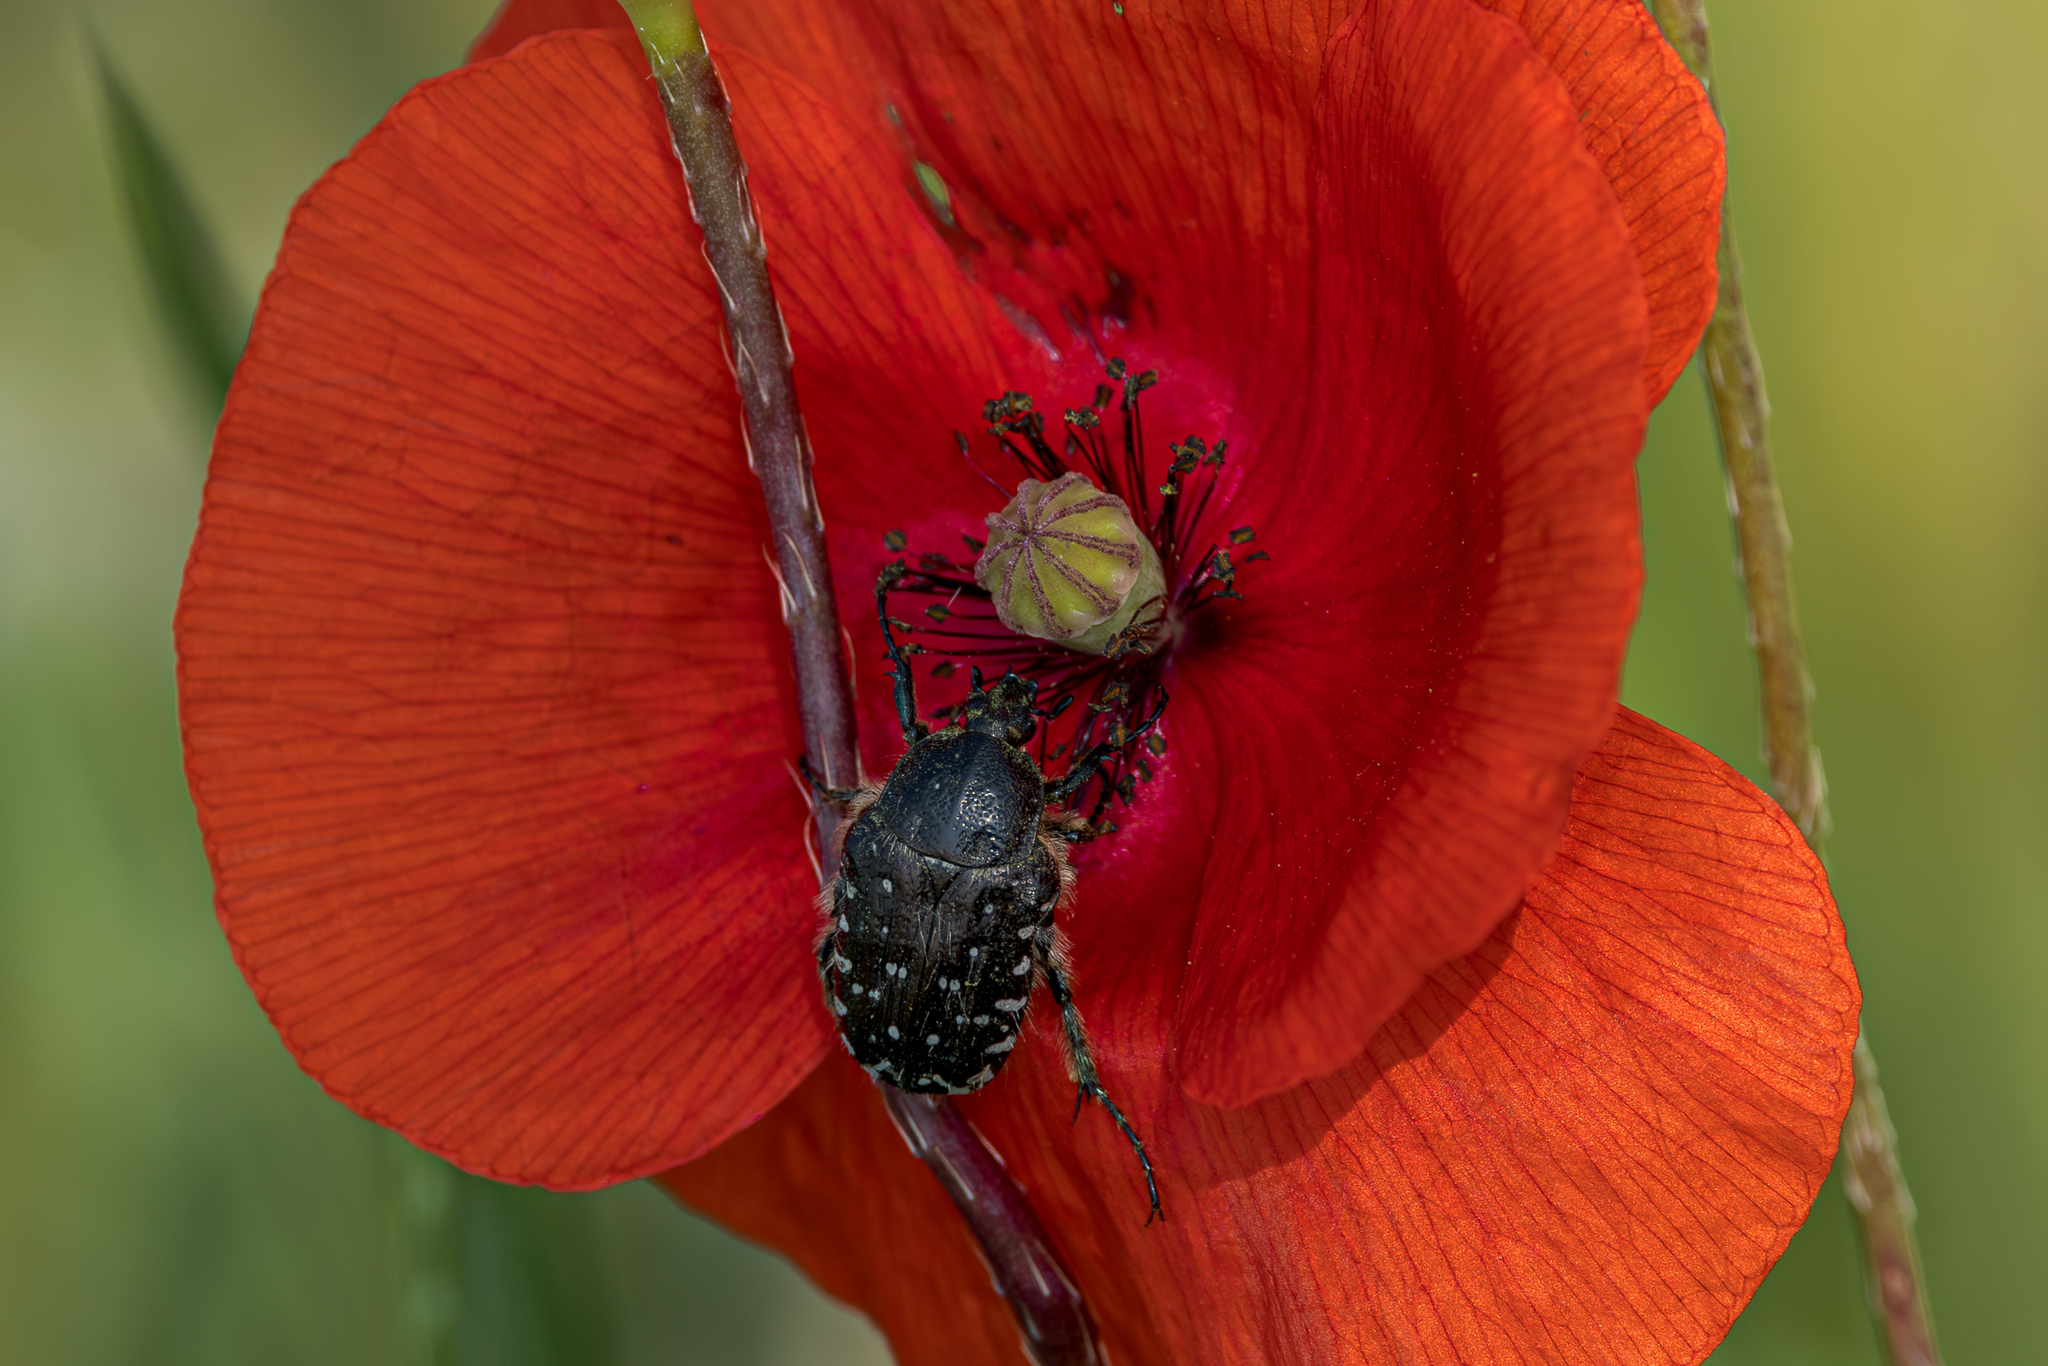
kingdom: Animalia
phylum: Arthropoda
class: Insecta
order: Coleoptera
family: Scarabaeidae
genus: Oxythyrea
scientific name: Oxythyrea funesta
